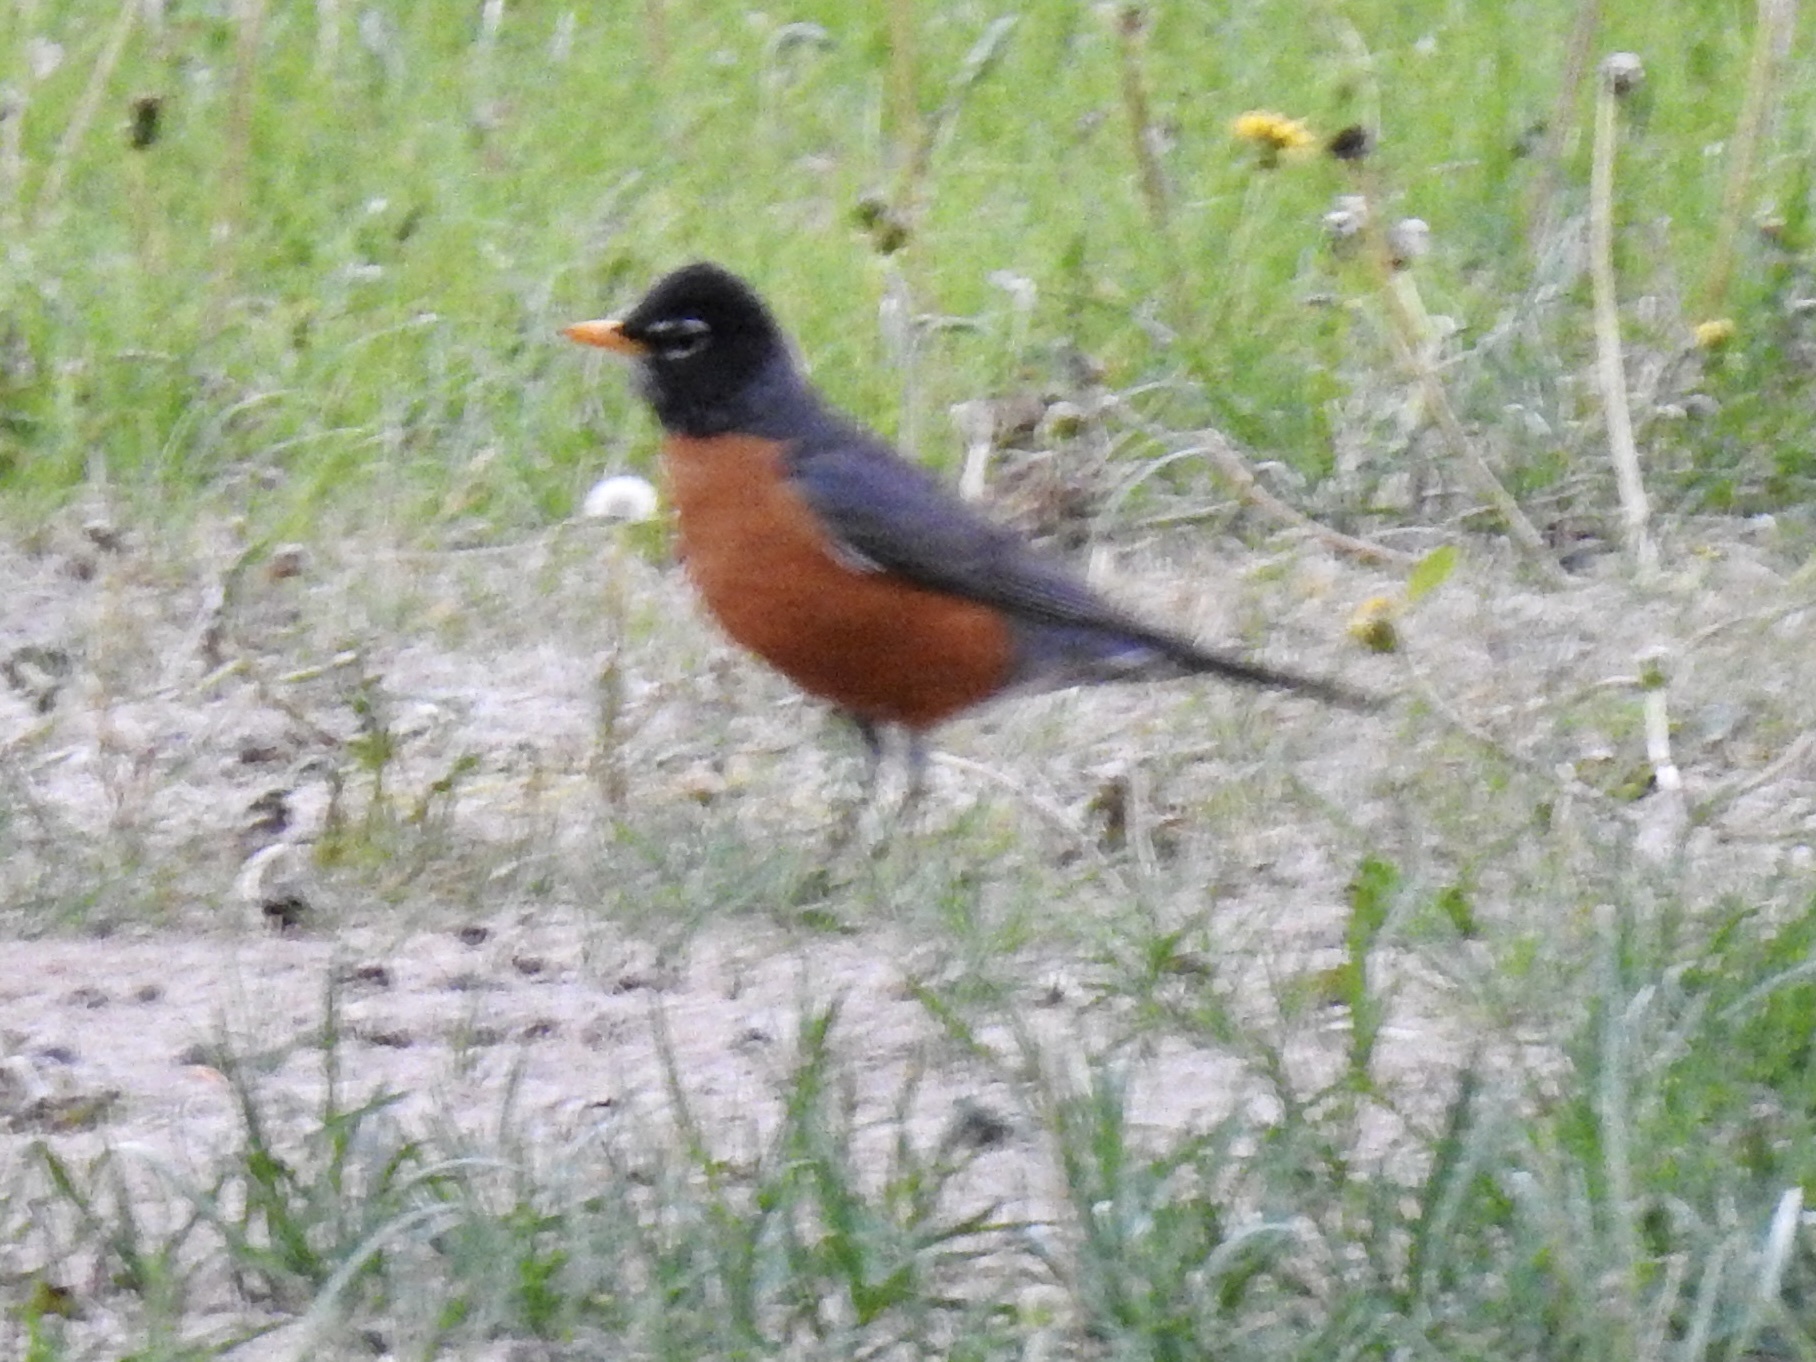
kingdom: Animalia
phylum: Chordata
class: Aves
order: Passeriformes
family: Turdidae
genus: Turdus
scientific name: Turdus migratorius
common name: American robin
